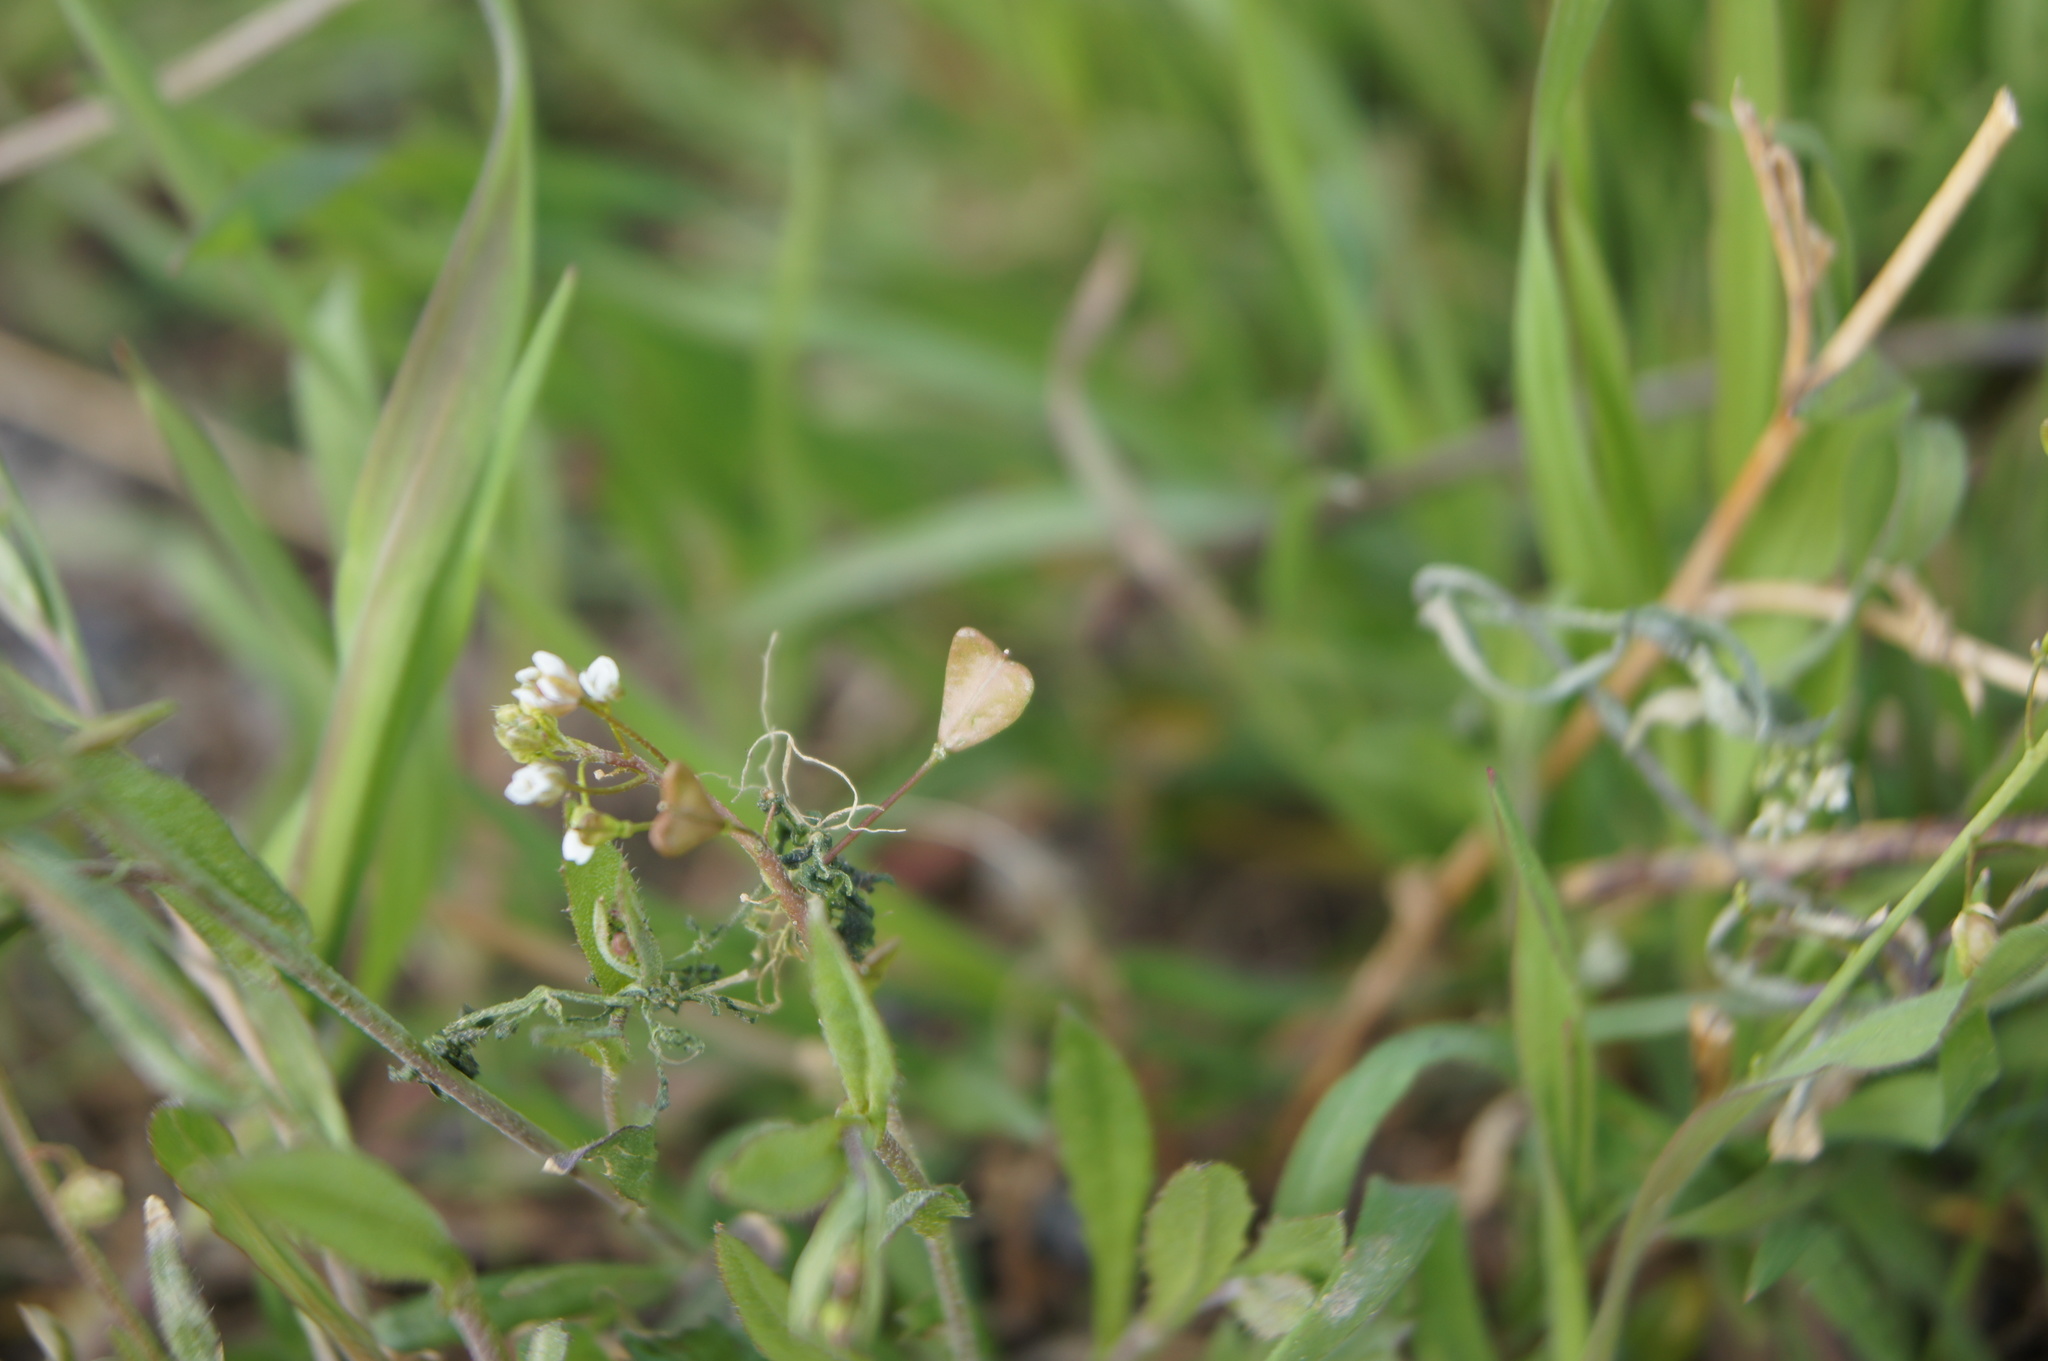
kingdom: Plantae
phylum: Tracheophyta
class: Magnoliopsida
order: Brassicales
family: Brassicaceae
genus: Capsella
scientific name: Capsella bursa-pastoris
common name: Shepherd's purse
